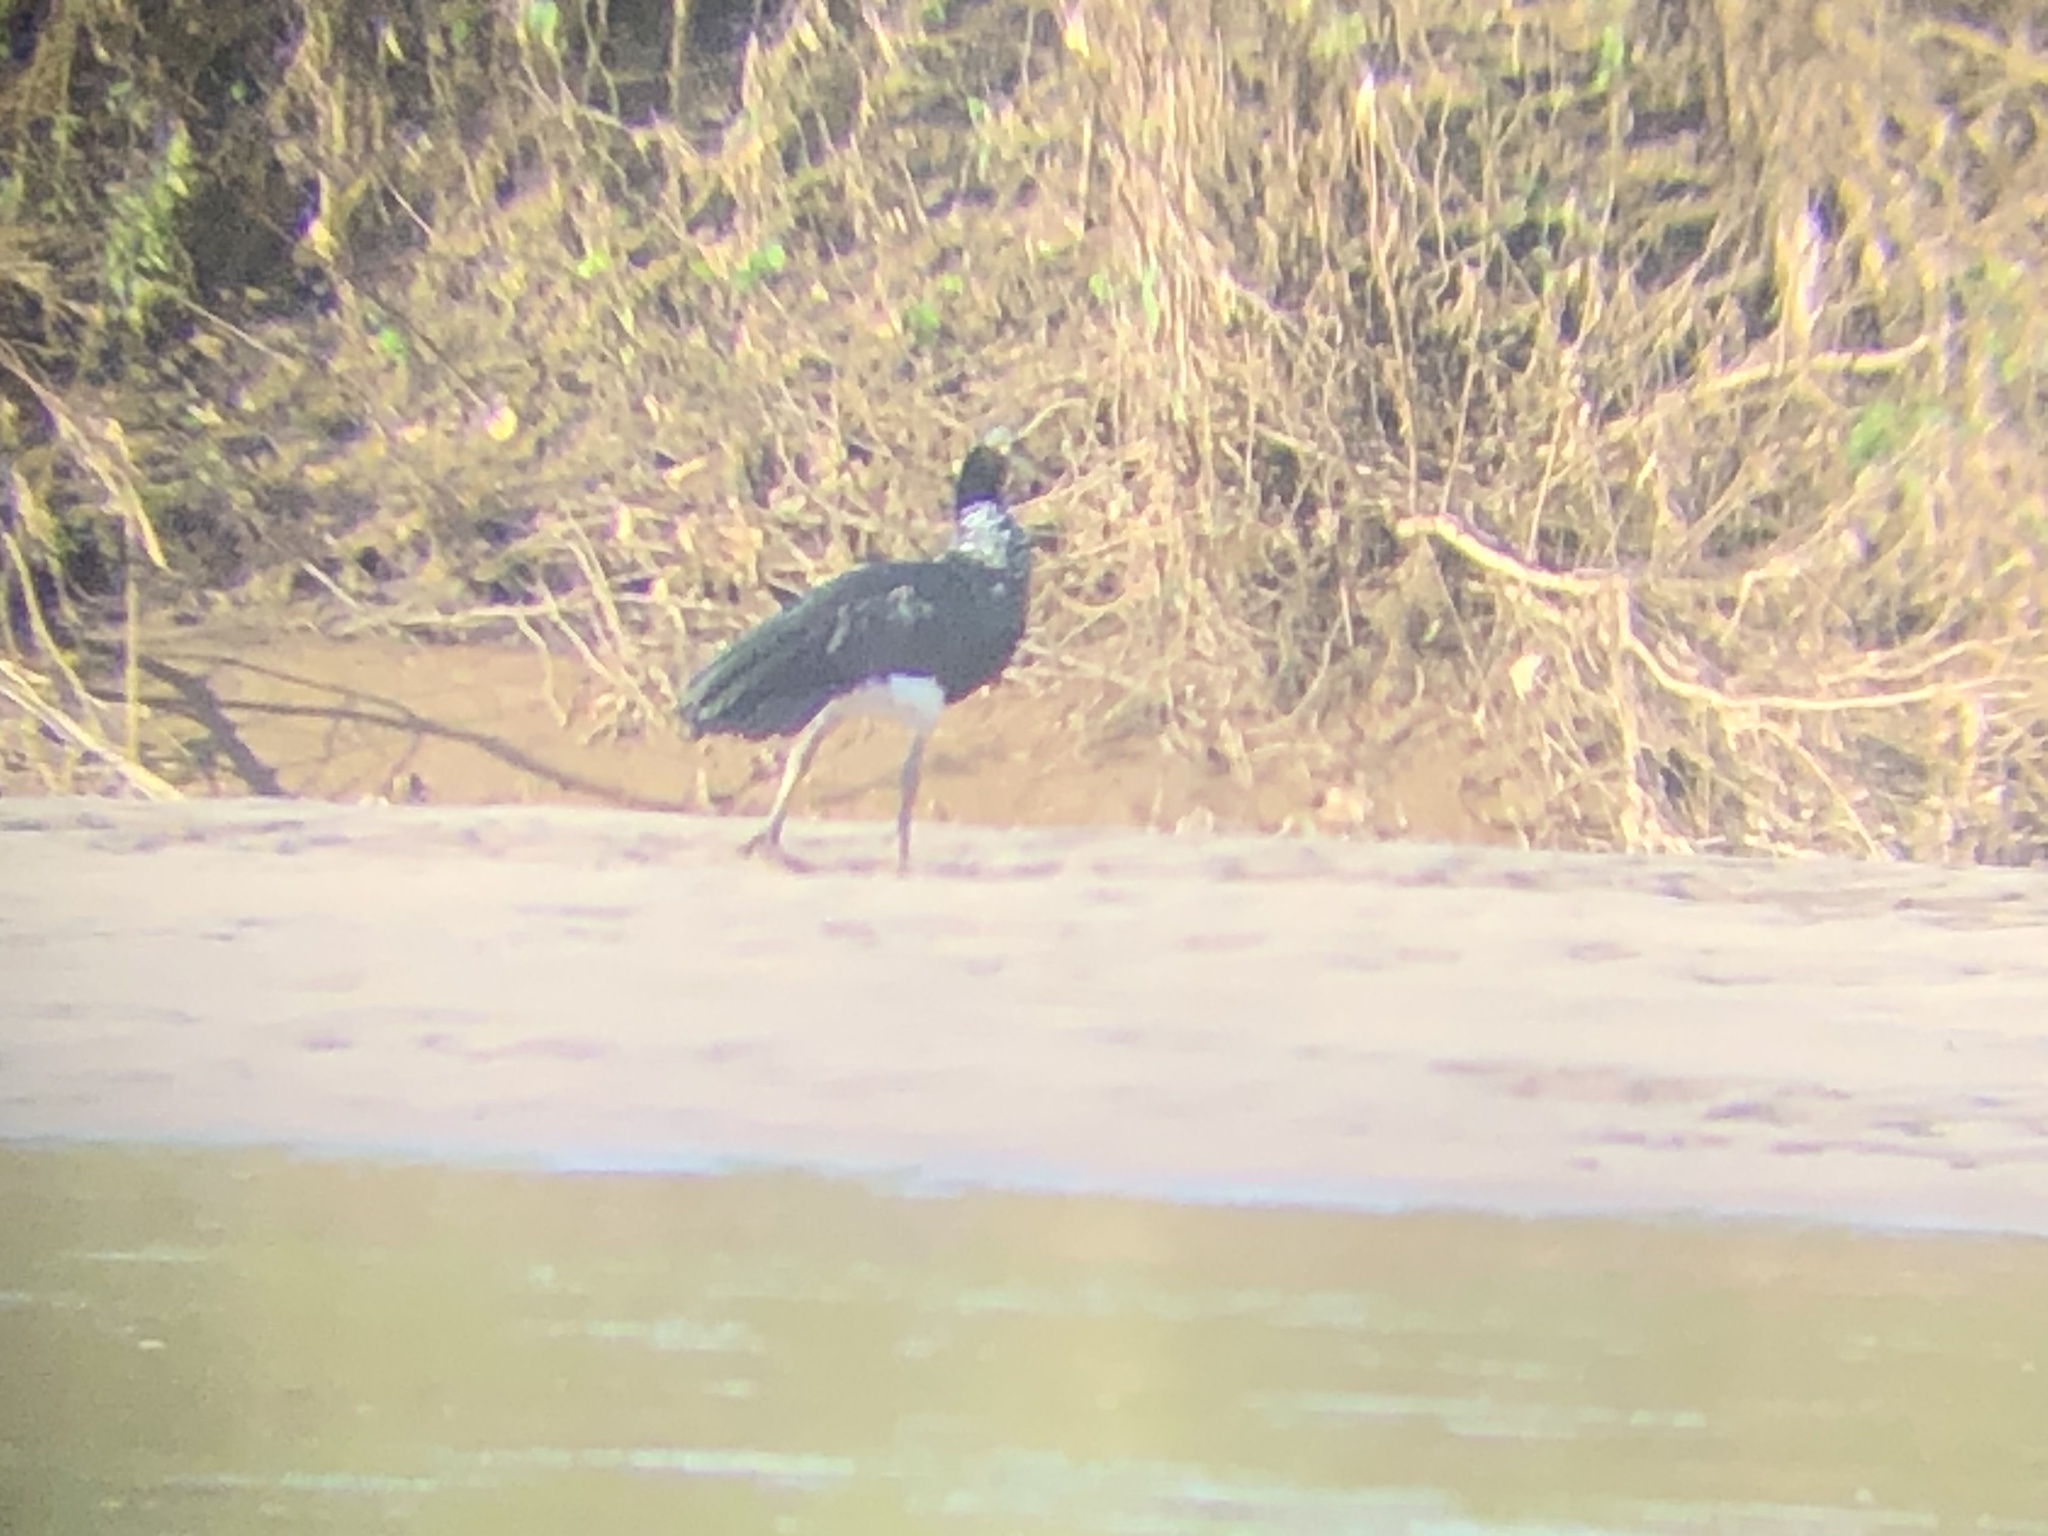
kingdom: Animalia
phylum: Chordata
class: Aves
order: Anseriformes
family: Anhimidae
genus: Anhima
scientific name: Anhima cornuta
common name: Horned screamer
